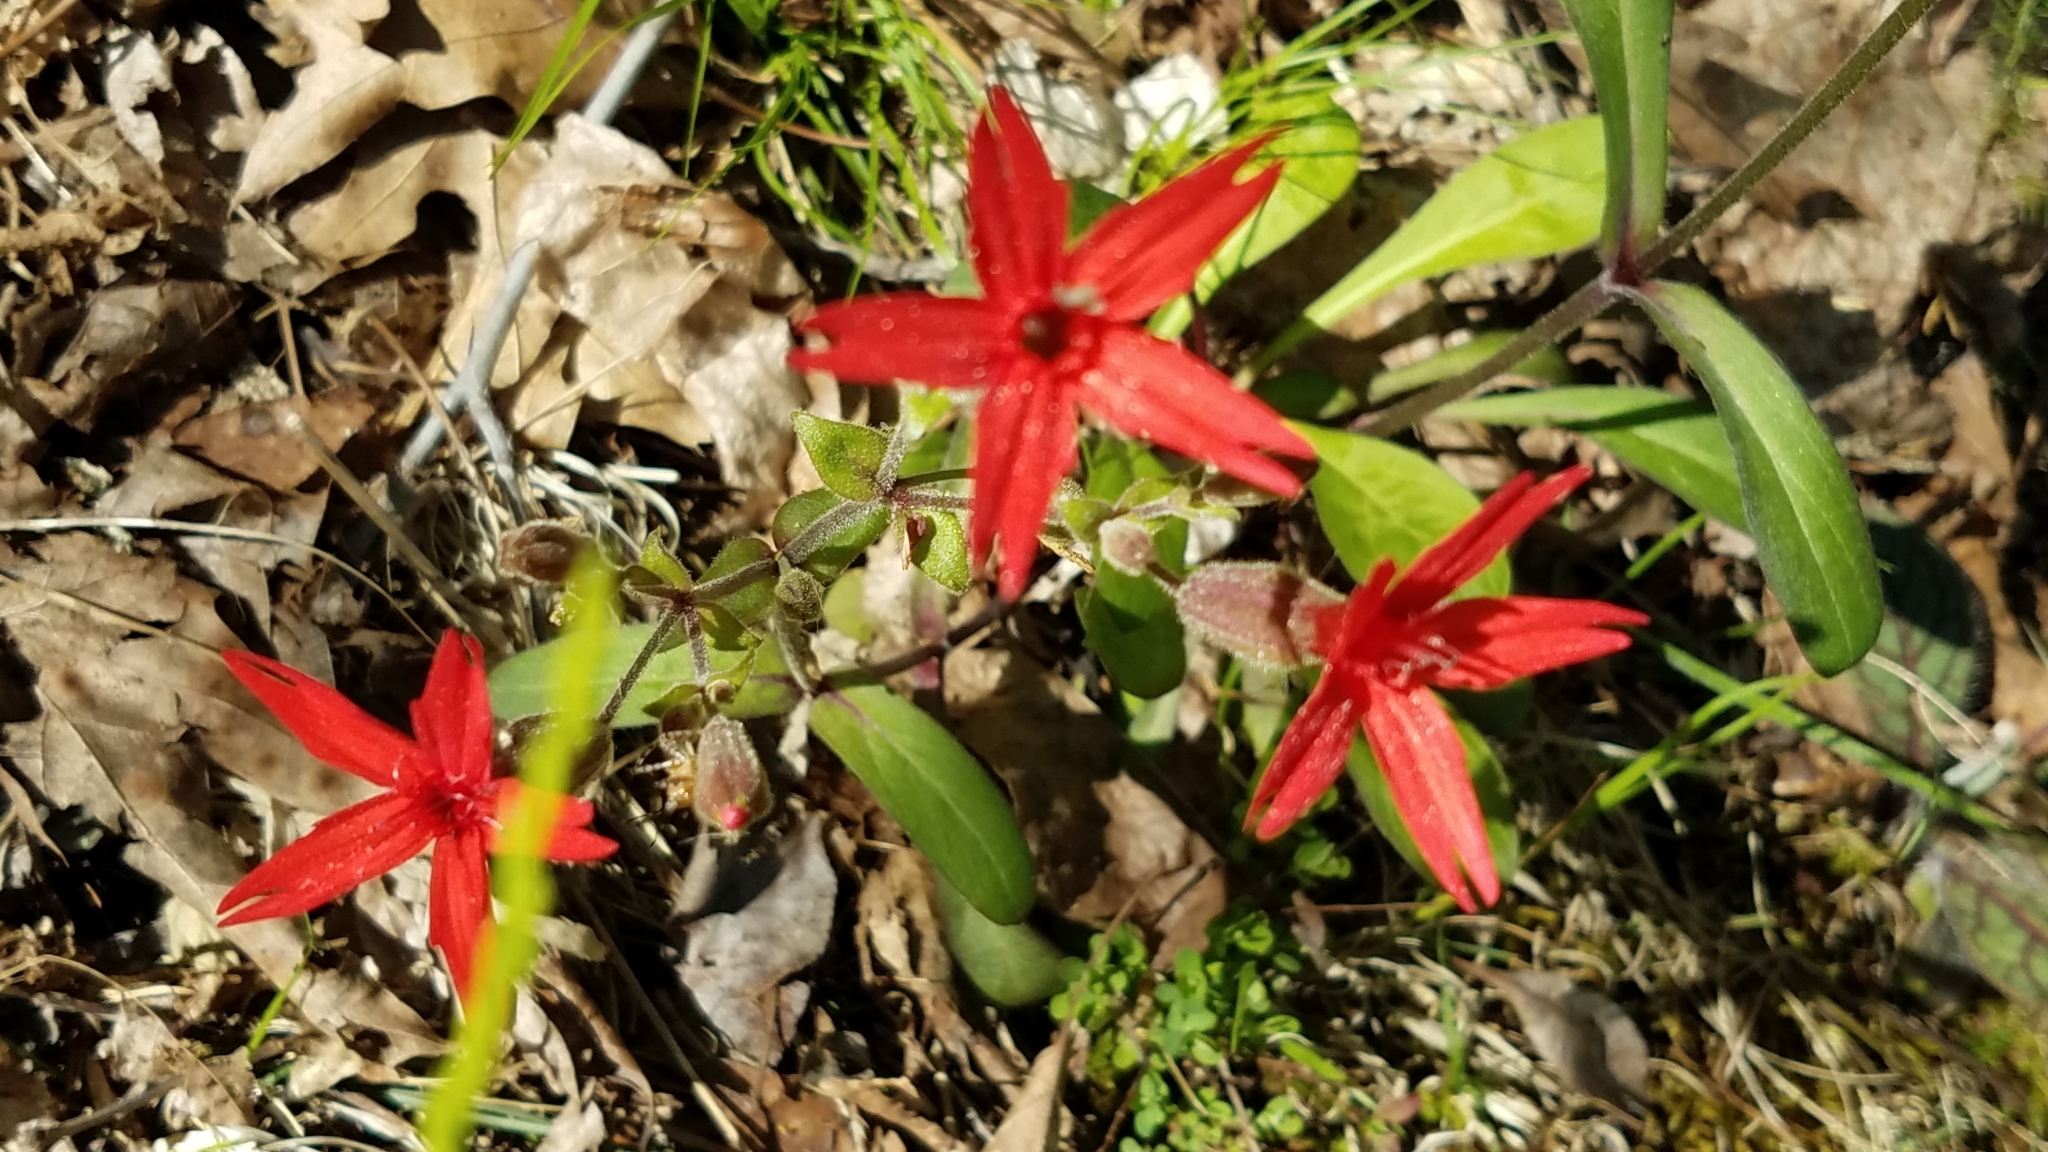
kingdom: Plantae
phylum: Tracheophyta
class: Magnoliopsida
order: Caryophyllales
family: Caryophyllaceae
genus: Silene
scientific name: Silene virginica
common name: Fire-pink
